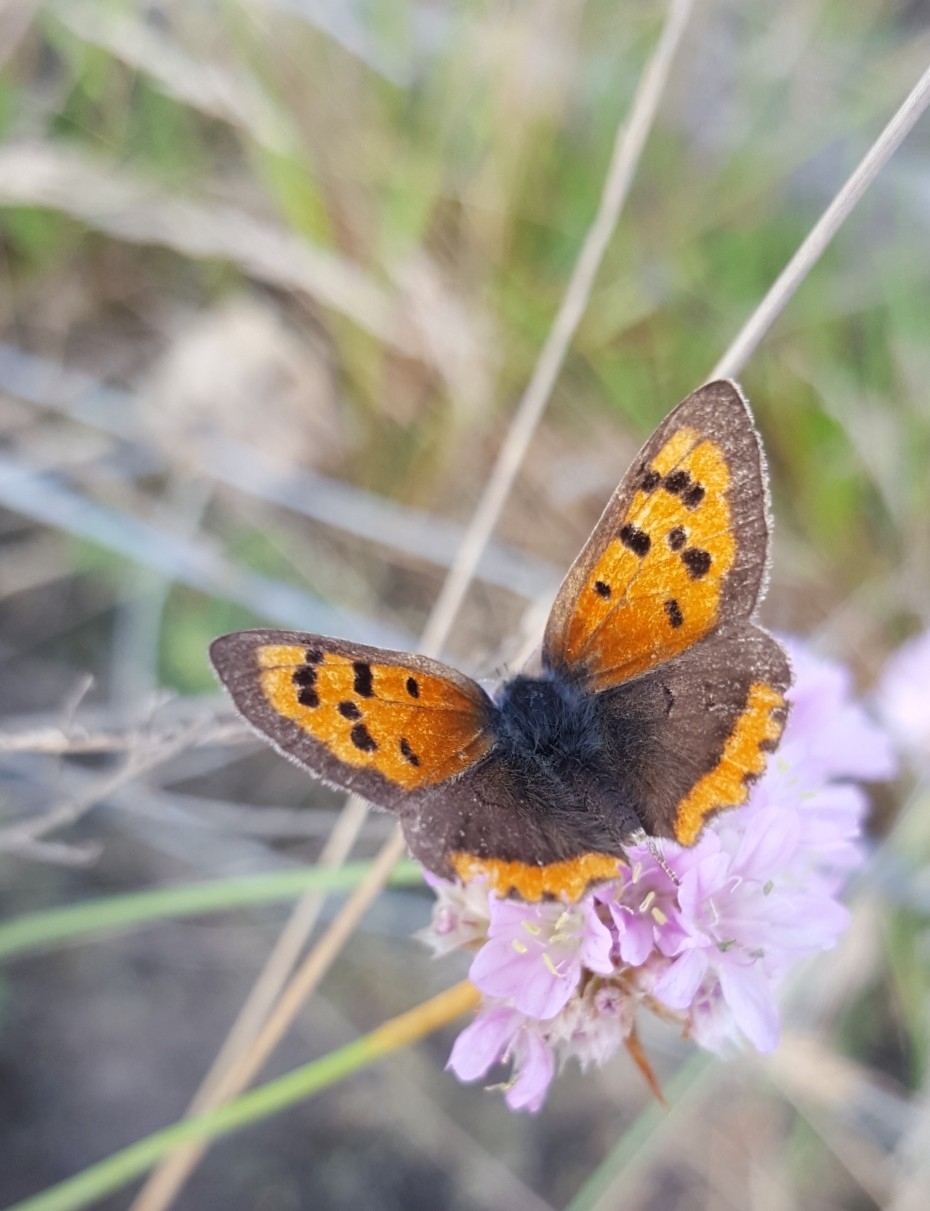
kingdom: Animalia
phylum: Arthropoda
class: Insecta
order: Lepidoptera
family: Lycaenidae
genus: Lycaena
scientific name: Lycaena phlaeas
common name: Small copper
